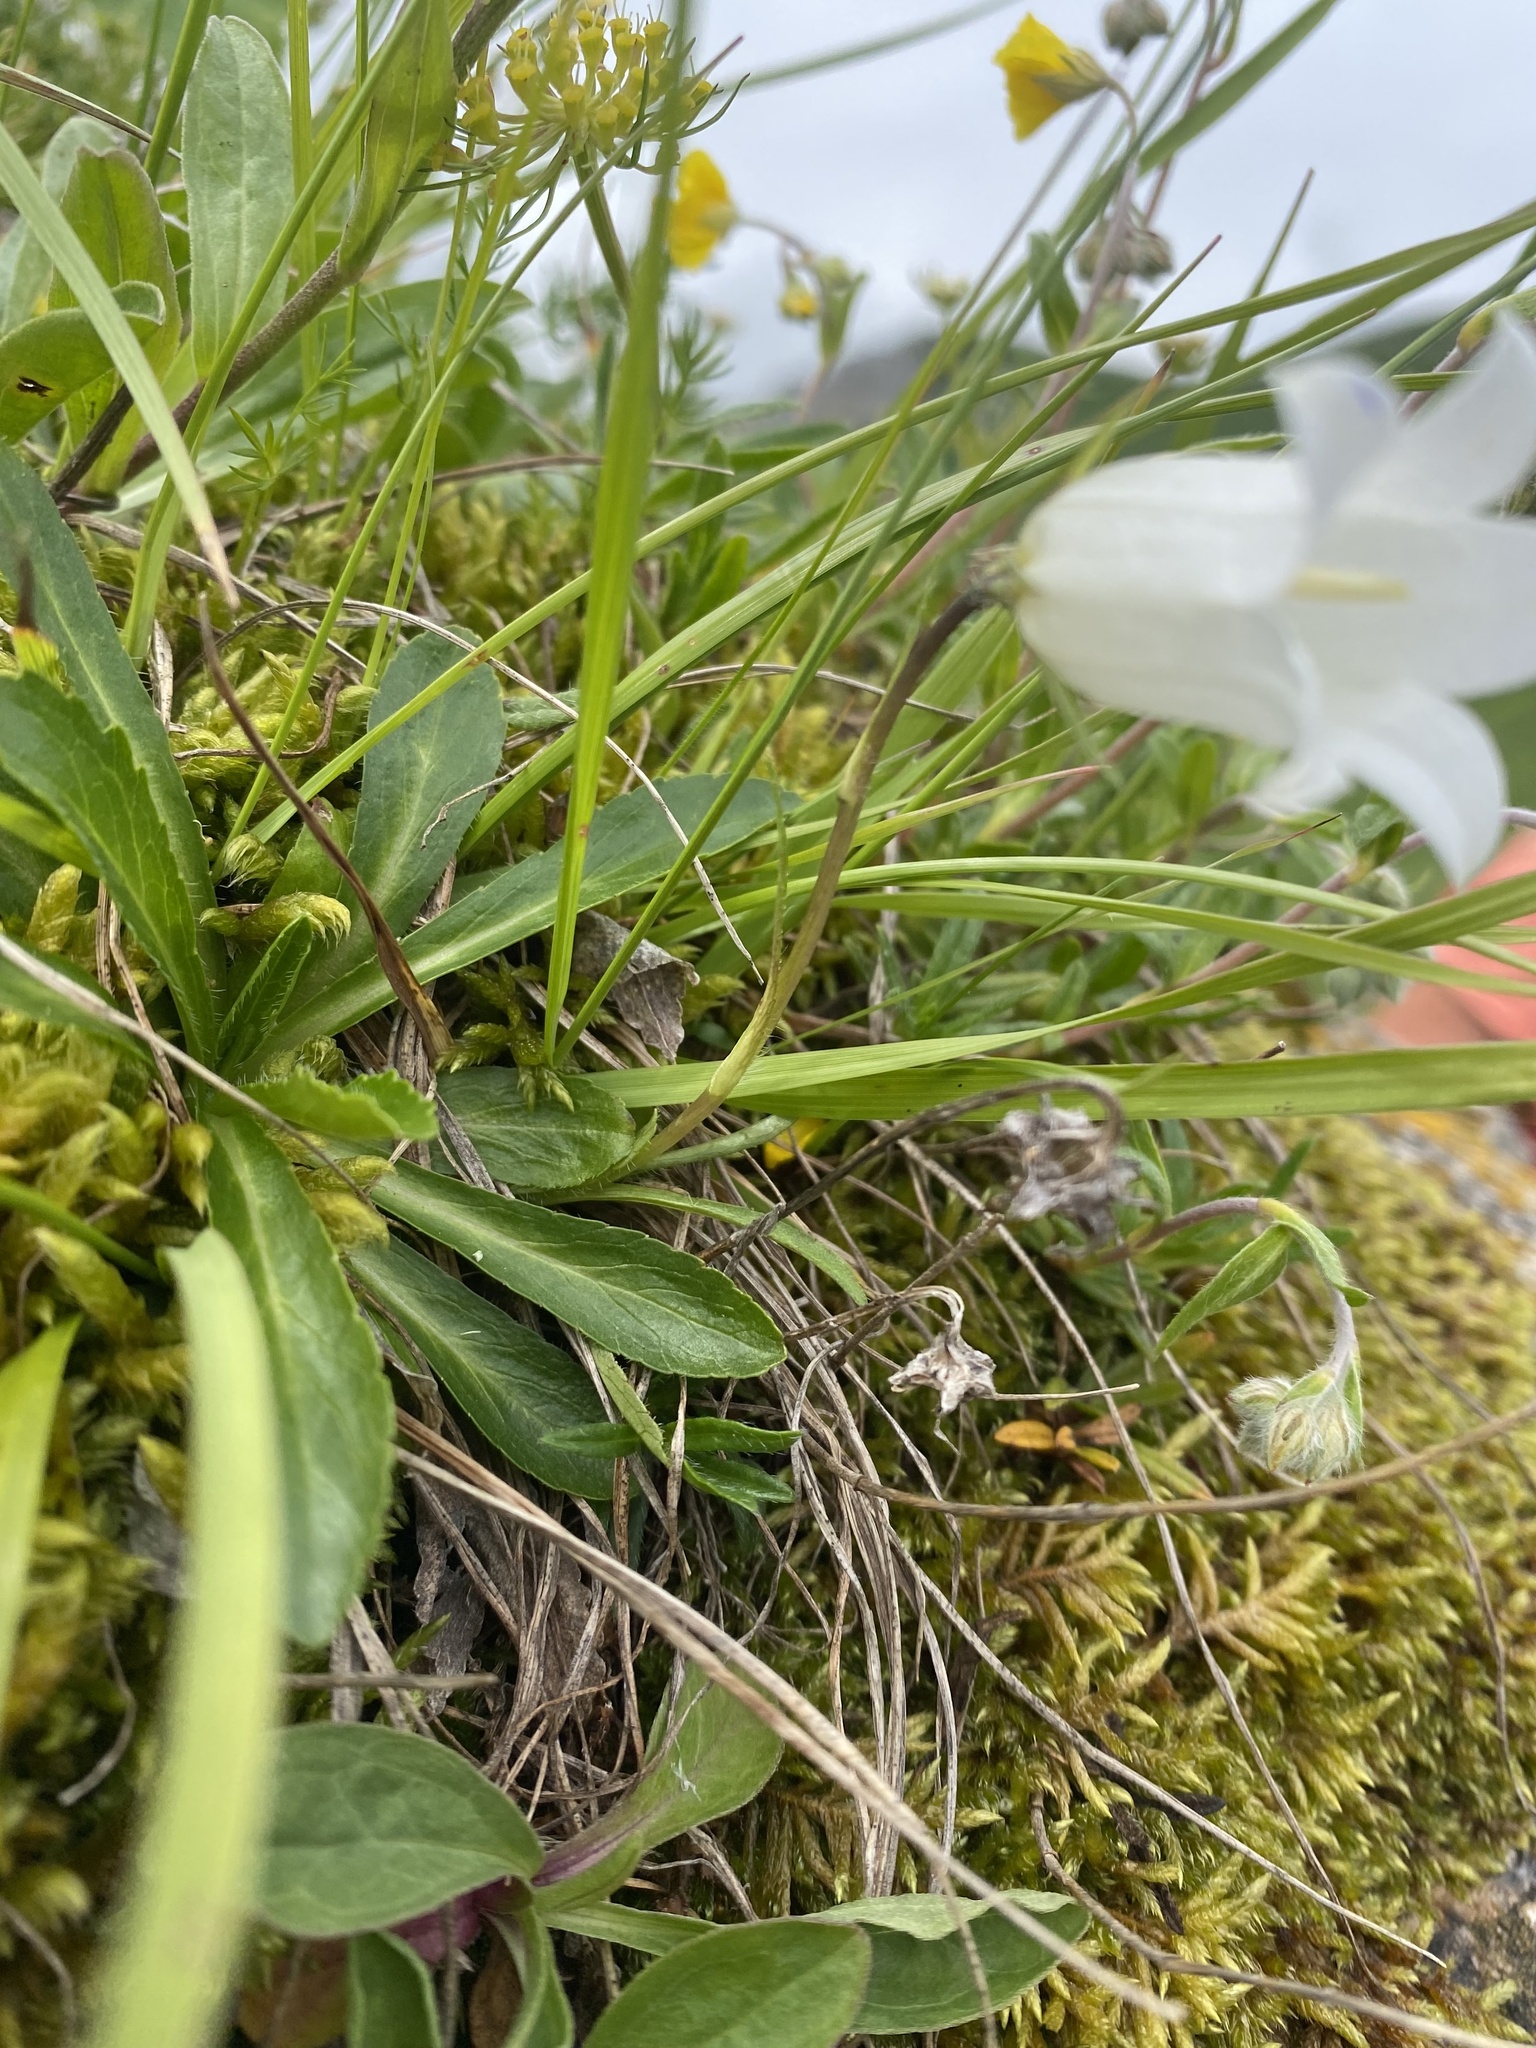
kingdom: Plantae
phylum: Tracheophyta
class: Magnoliopsida
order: Asterales
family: Campanulaceae
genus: Campanula
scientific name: Campanula ciliata
